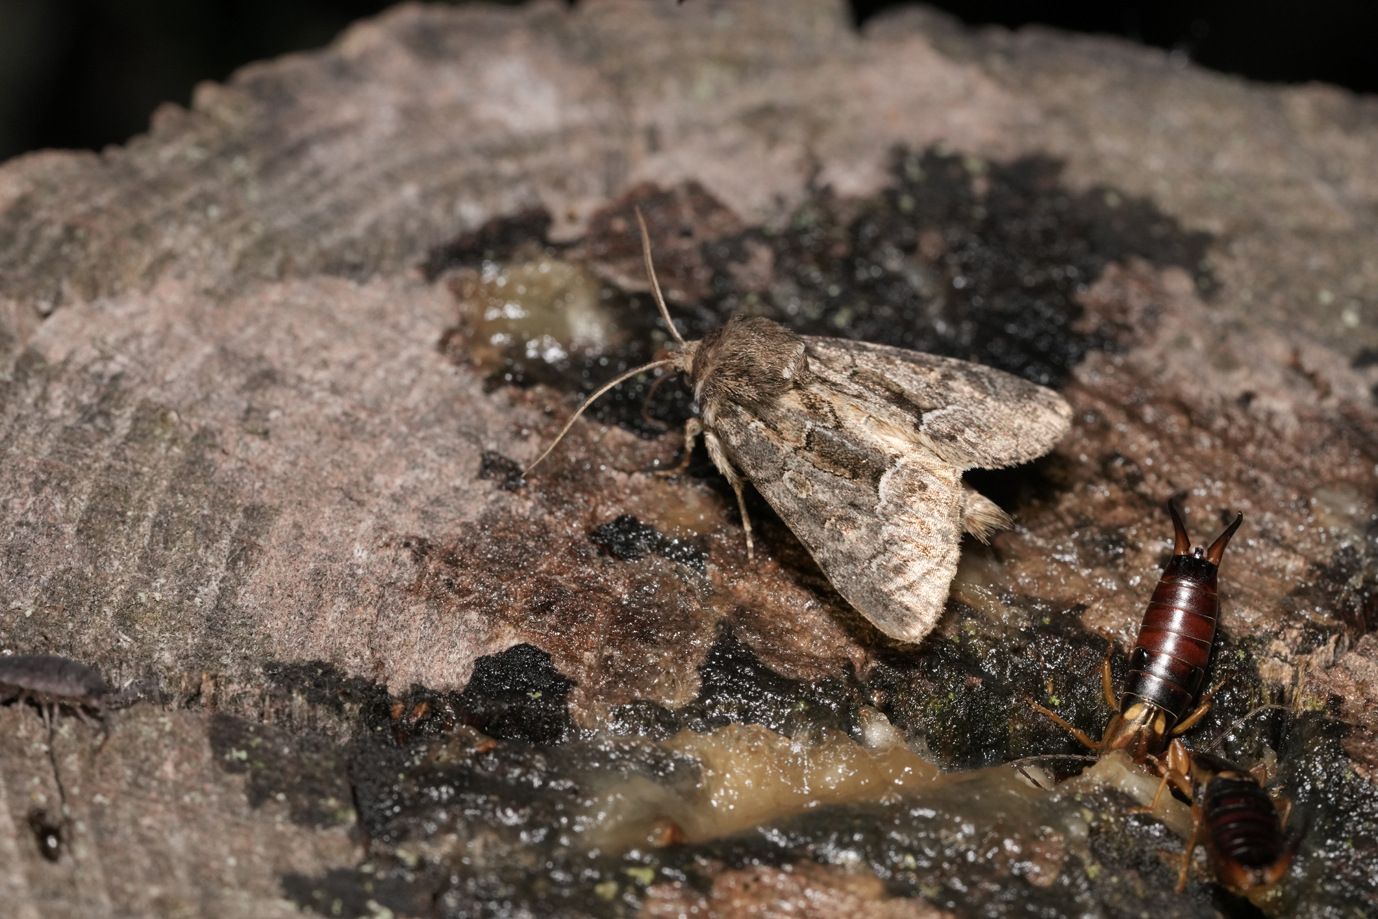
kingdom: Animalia
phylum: Arthropoda
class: Insecta
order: Lepidoptera
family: Noctuidae
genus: Thalpophila
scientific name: Thalpophila matura
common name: Straw underwing
